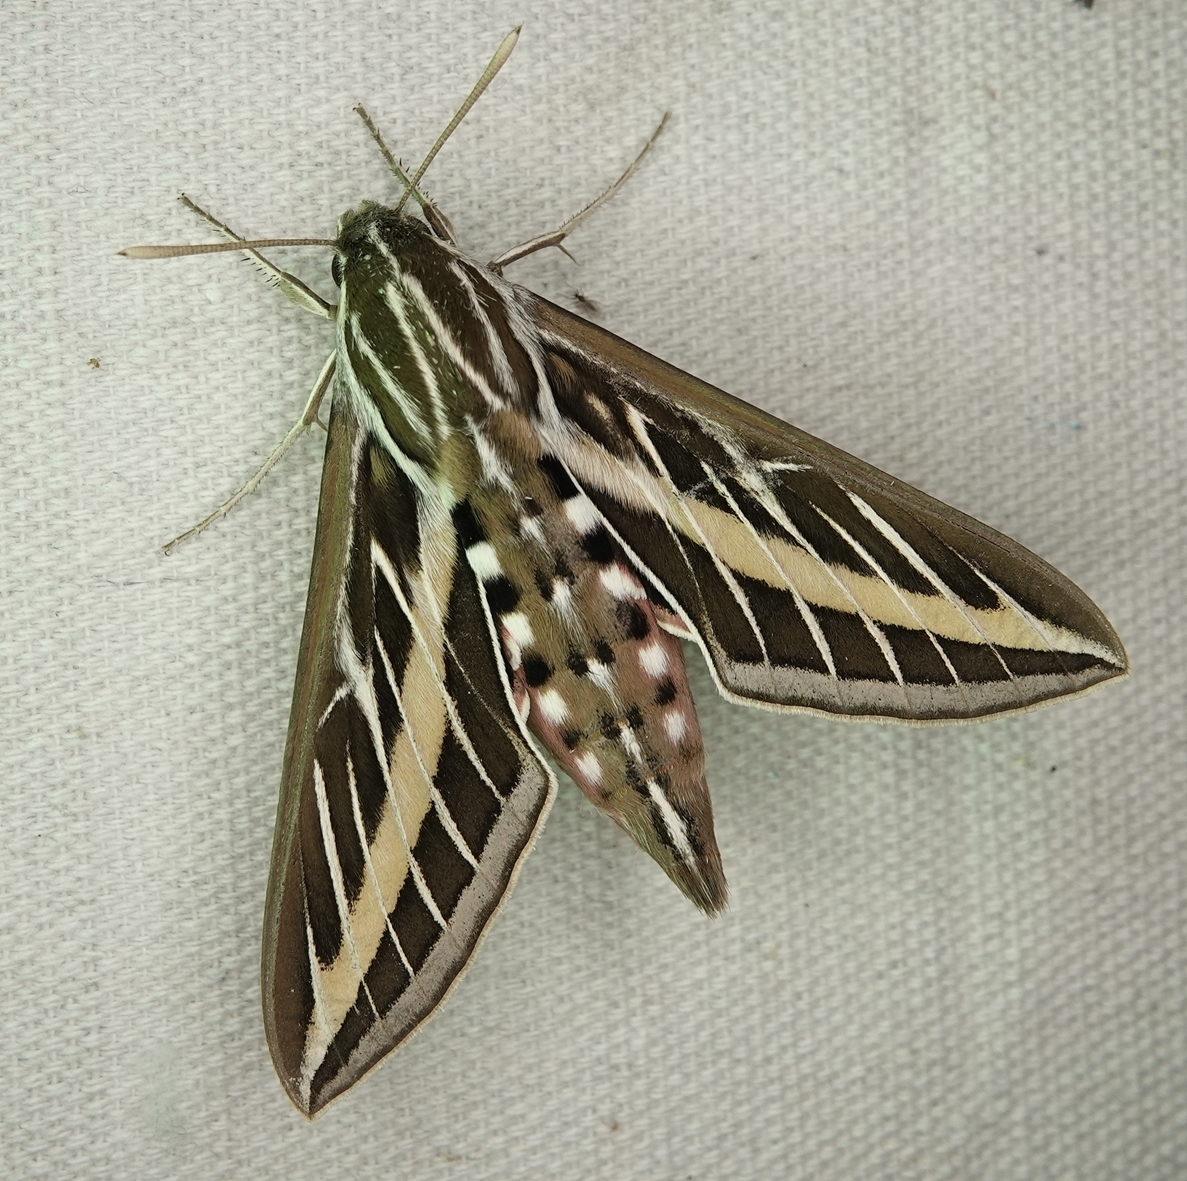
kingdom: Animalia
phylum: Arthropoda
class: Insecta
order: Lepidoptera
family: Sphingidae
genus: Hyles
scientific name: Hyles lineata
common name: White-lined sphinx
